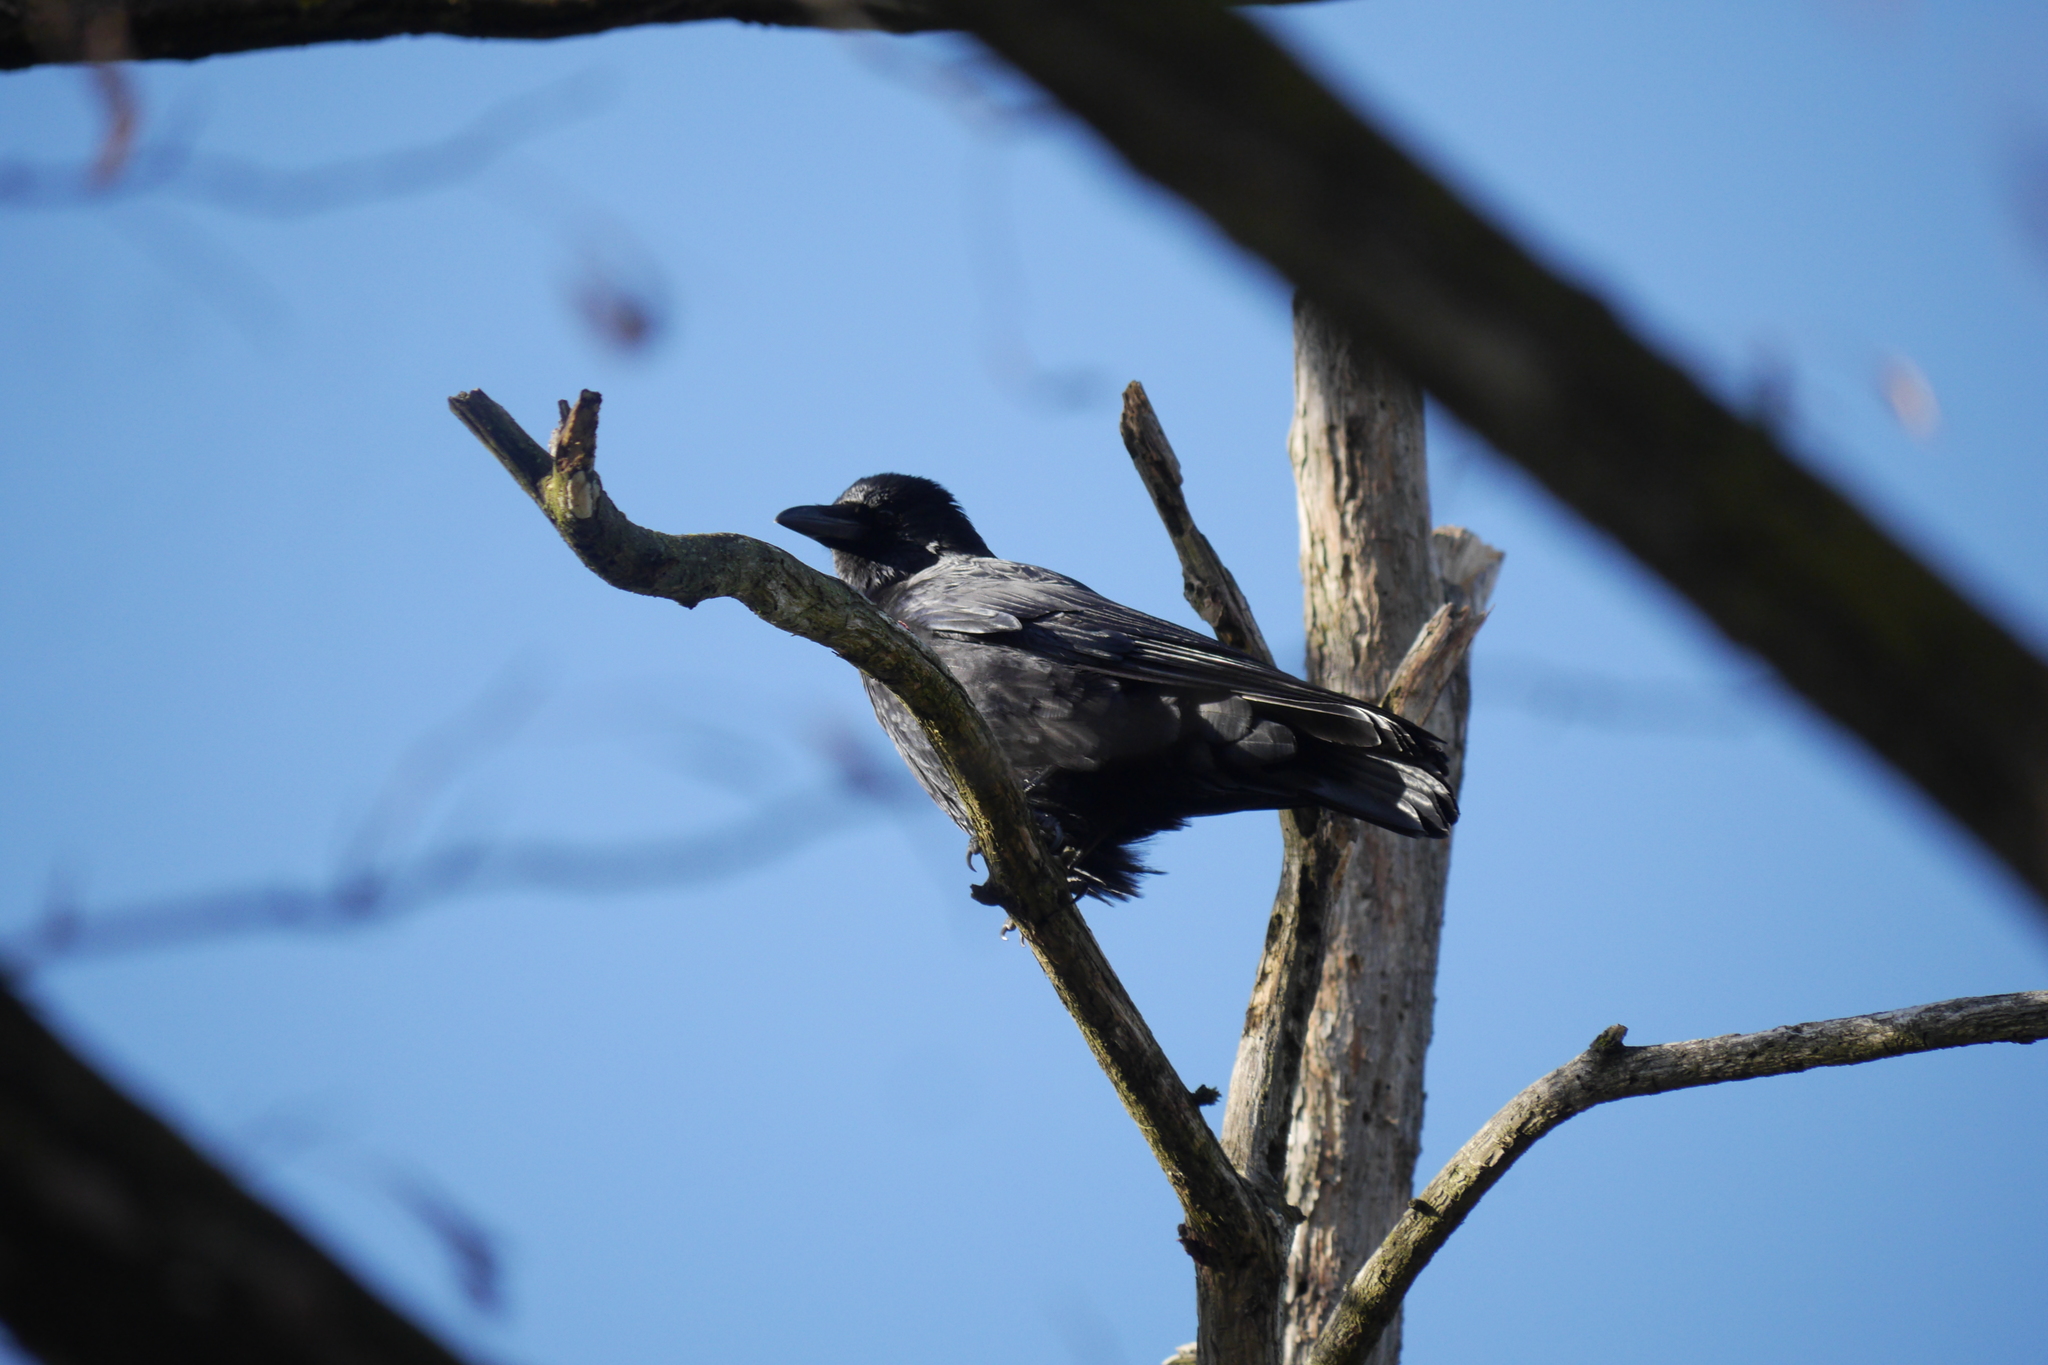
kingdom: Animalia
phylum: Chordata
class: Aves
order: Passeriformes
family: Corvidae
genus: Corvus
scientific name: Corvus corone
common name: Carrion crow
